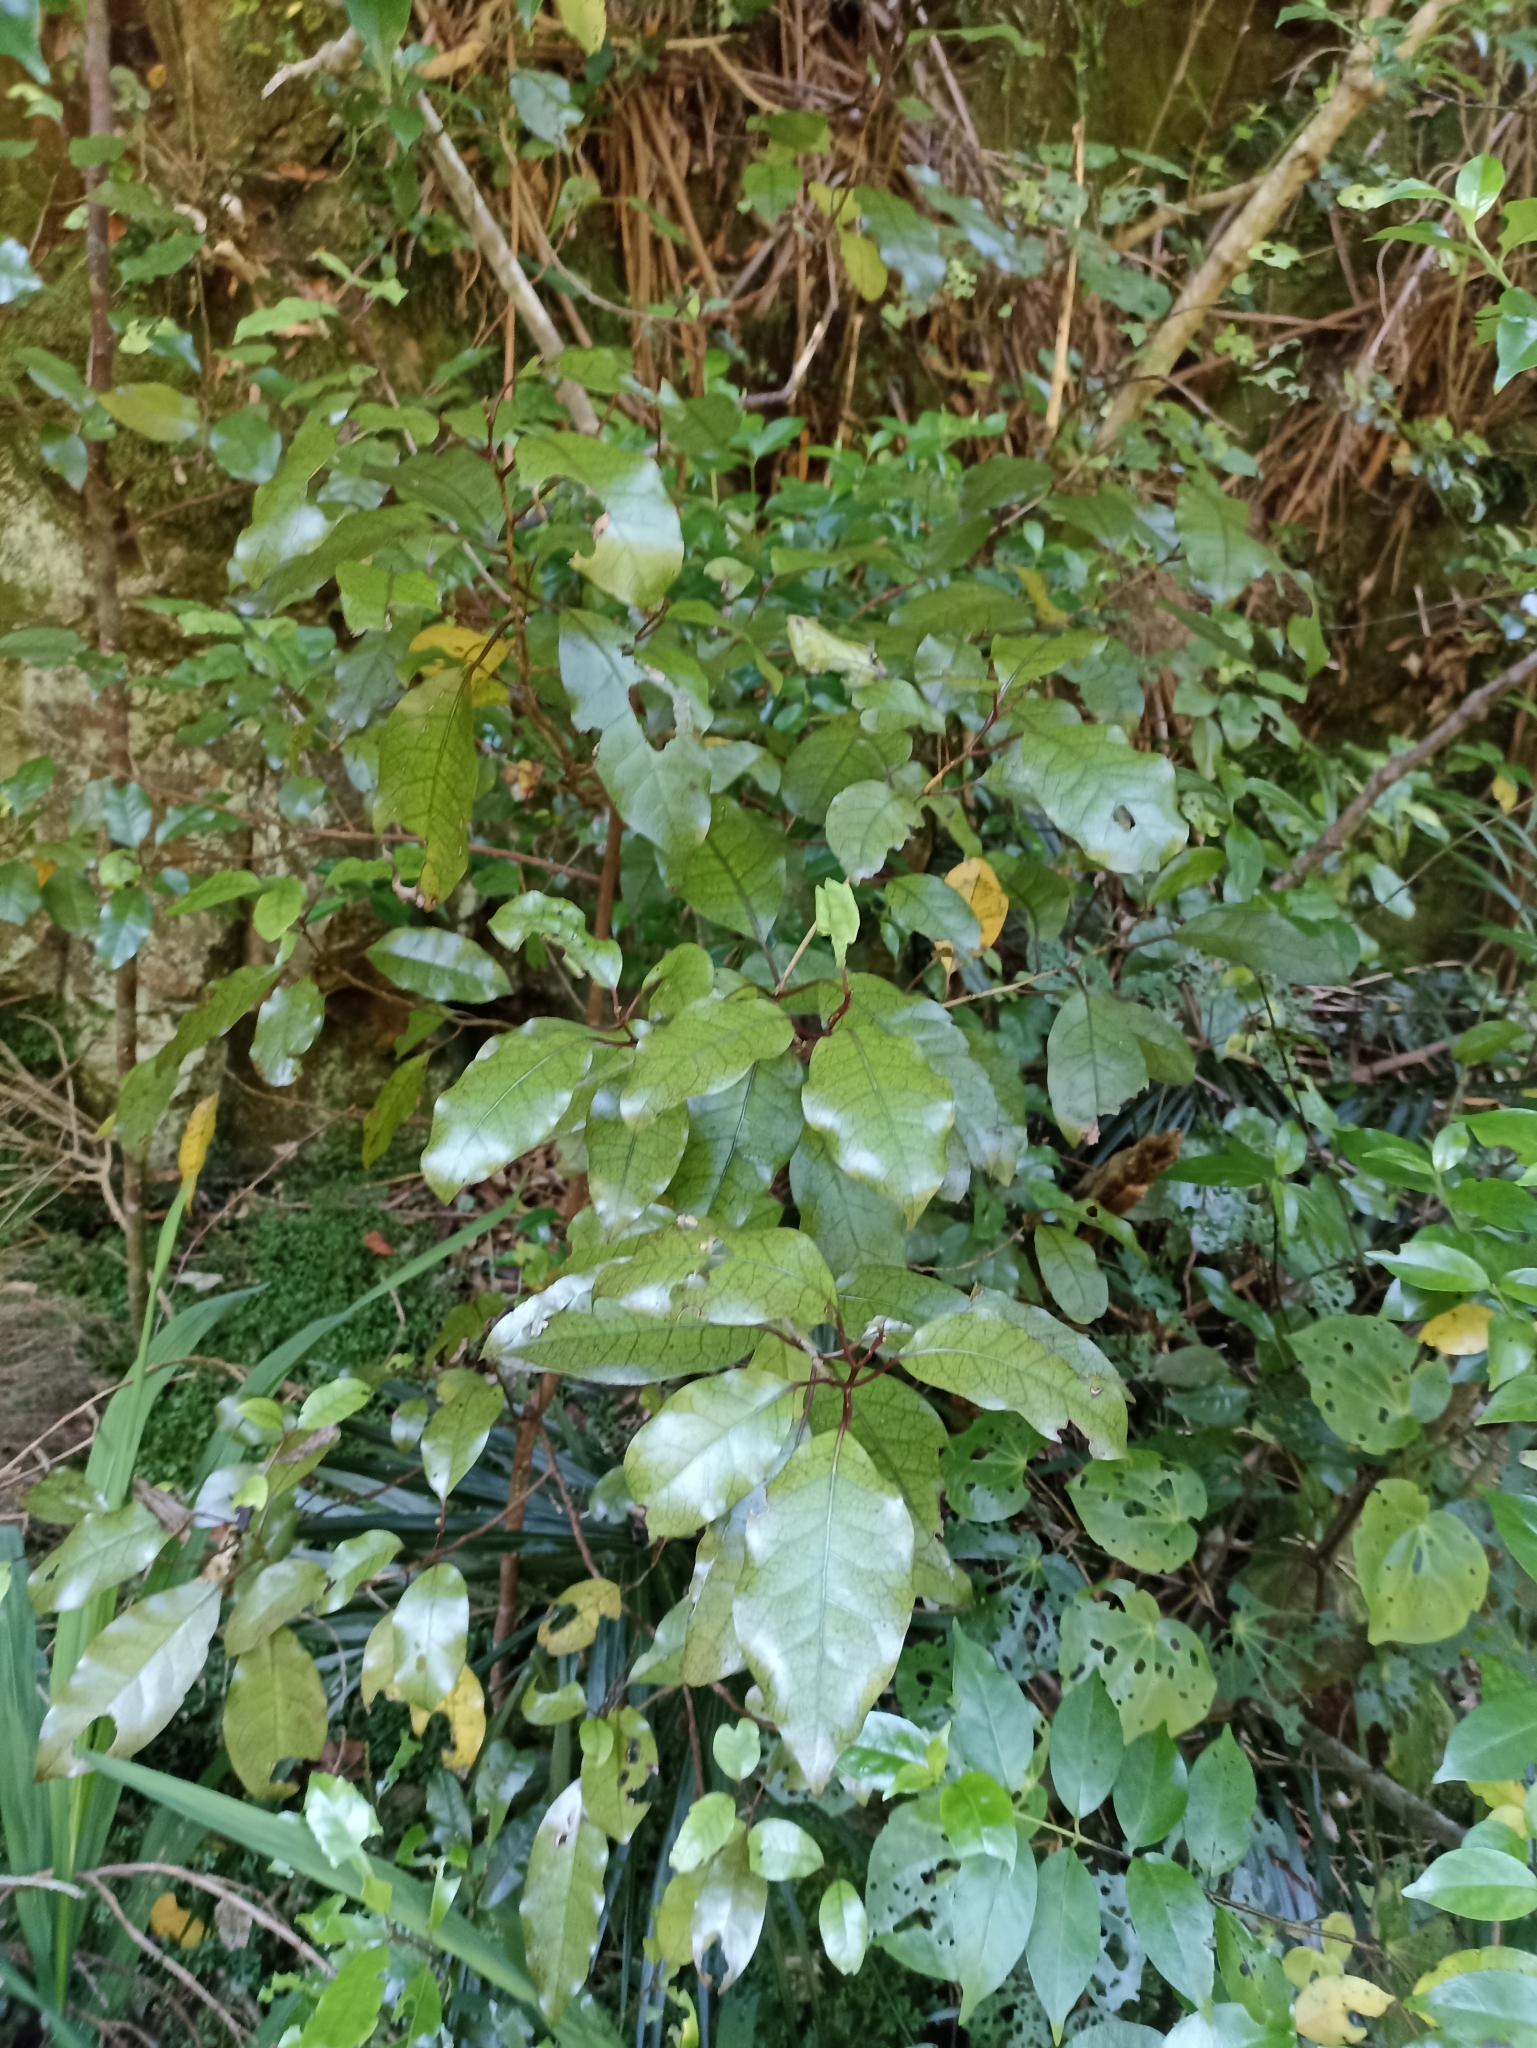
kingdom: Plantae
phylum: Tracheophyta
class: Magnoliopsida
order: Laurales
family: Lauraceae
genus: Litsea
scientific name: Litsea calicaris
